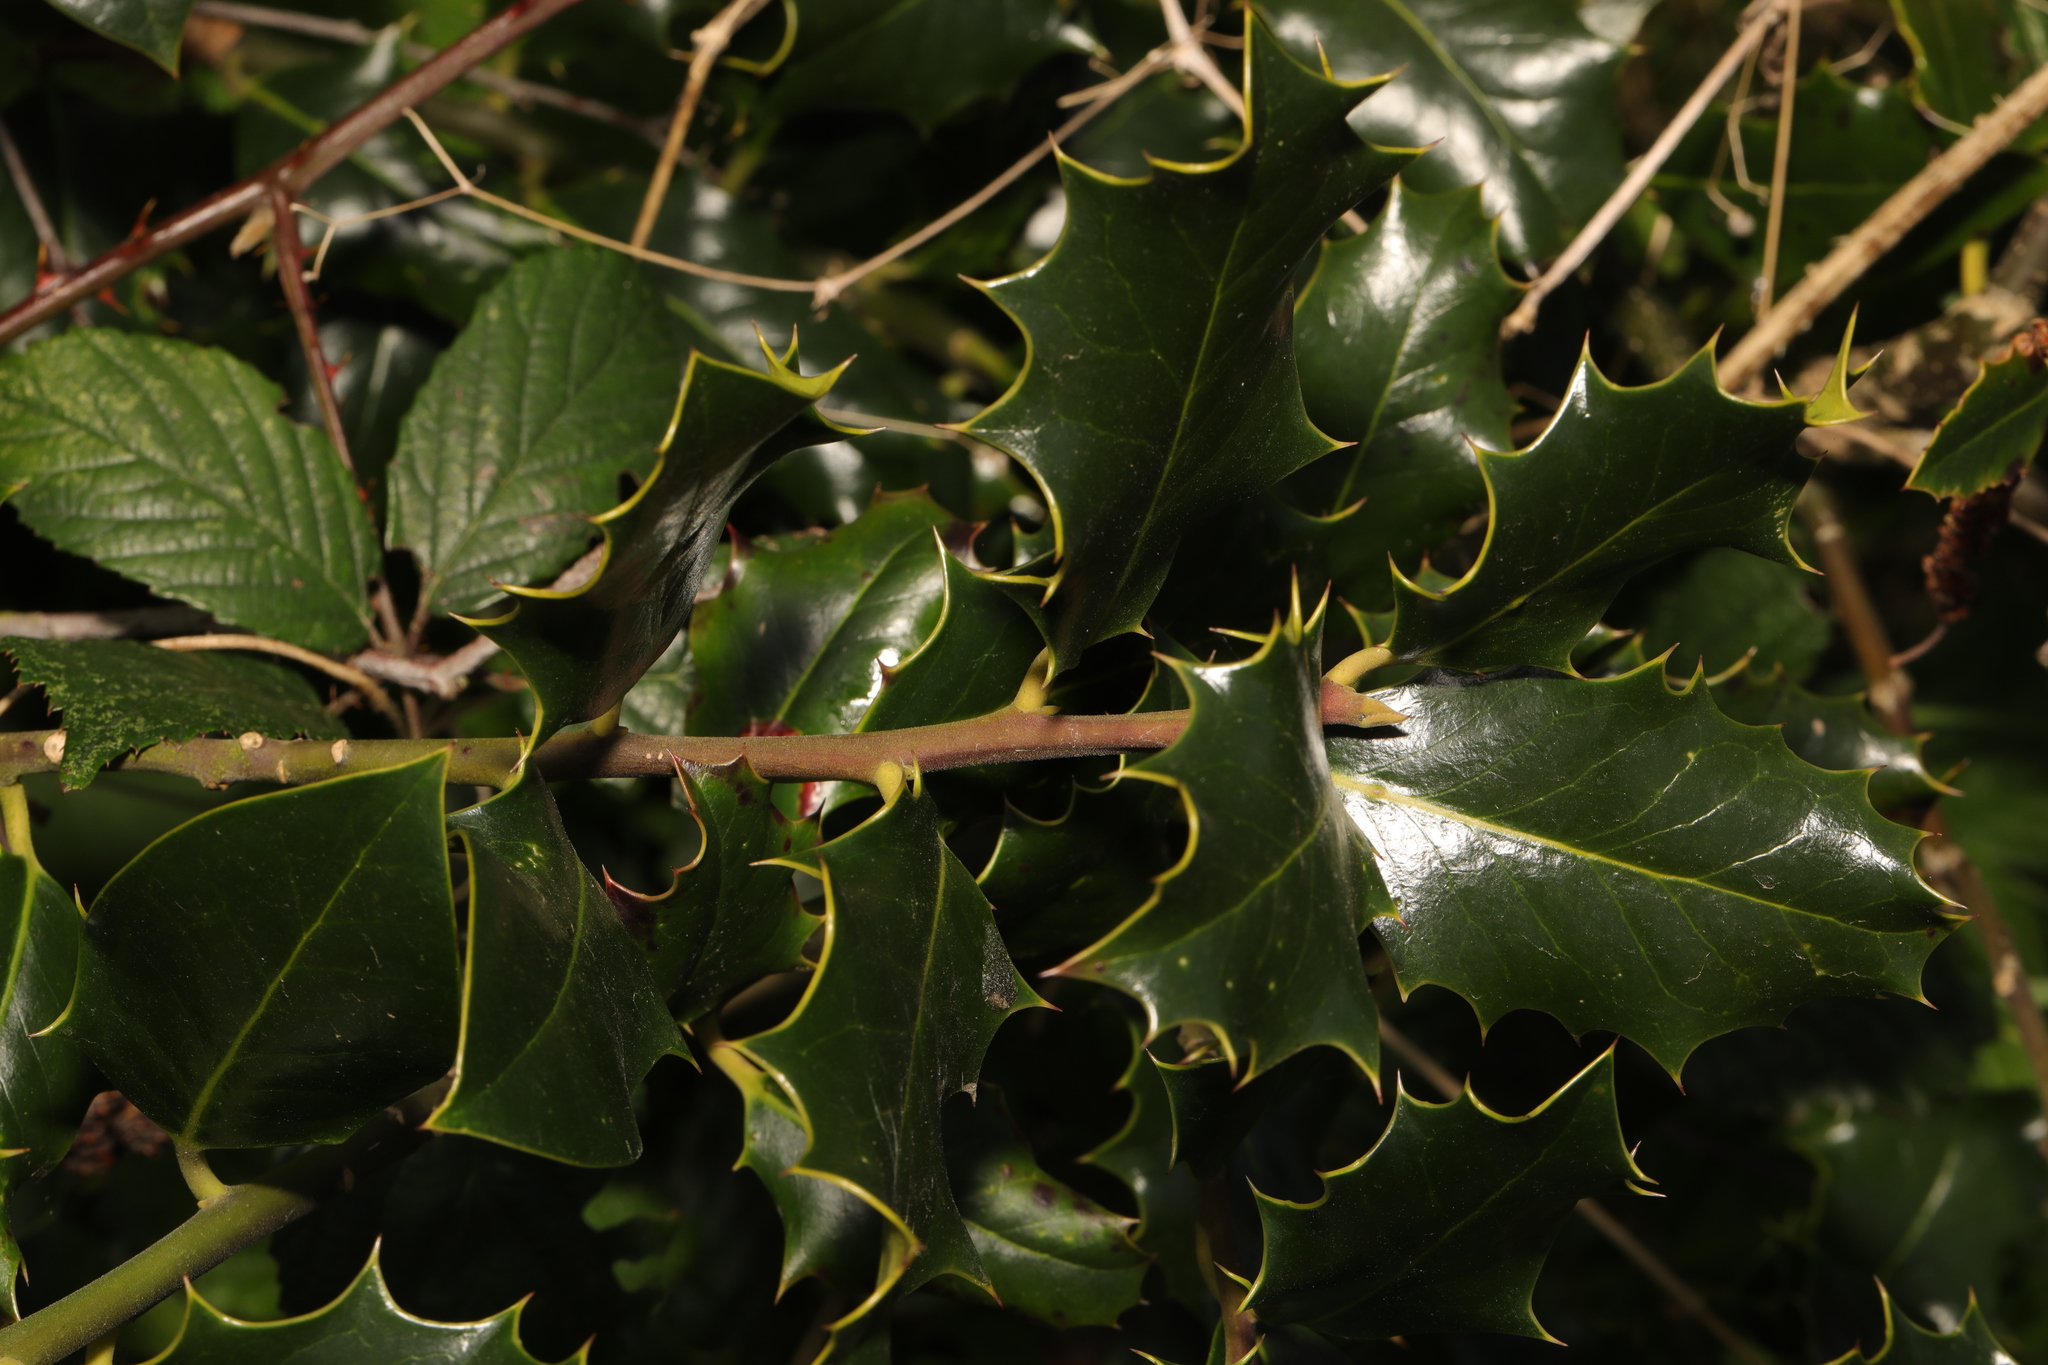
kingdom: Plantae
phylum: Tracheophyta
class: Magnoliopsida
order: Aquifoliales
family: Aquifoliaceae
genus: Ilex
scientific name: Ilex aquifolium
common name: English holly
